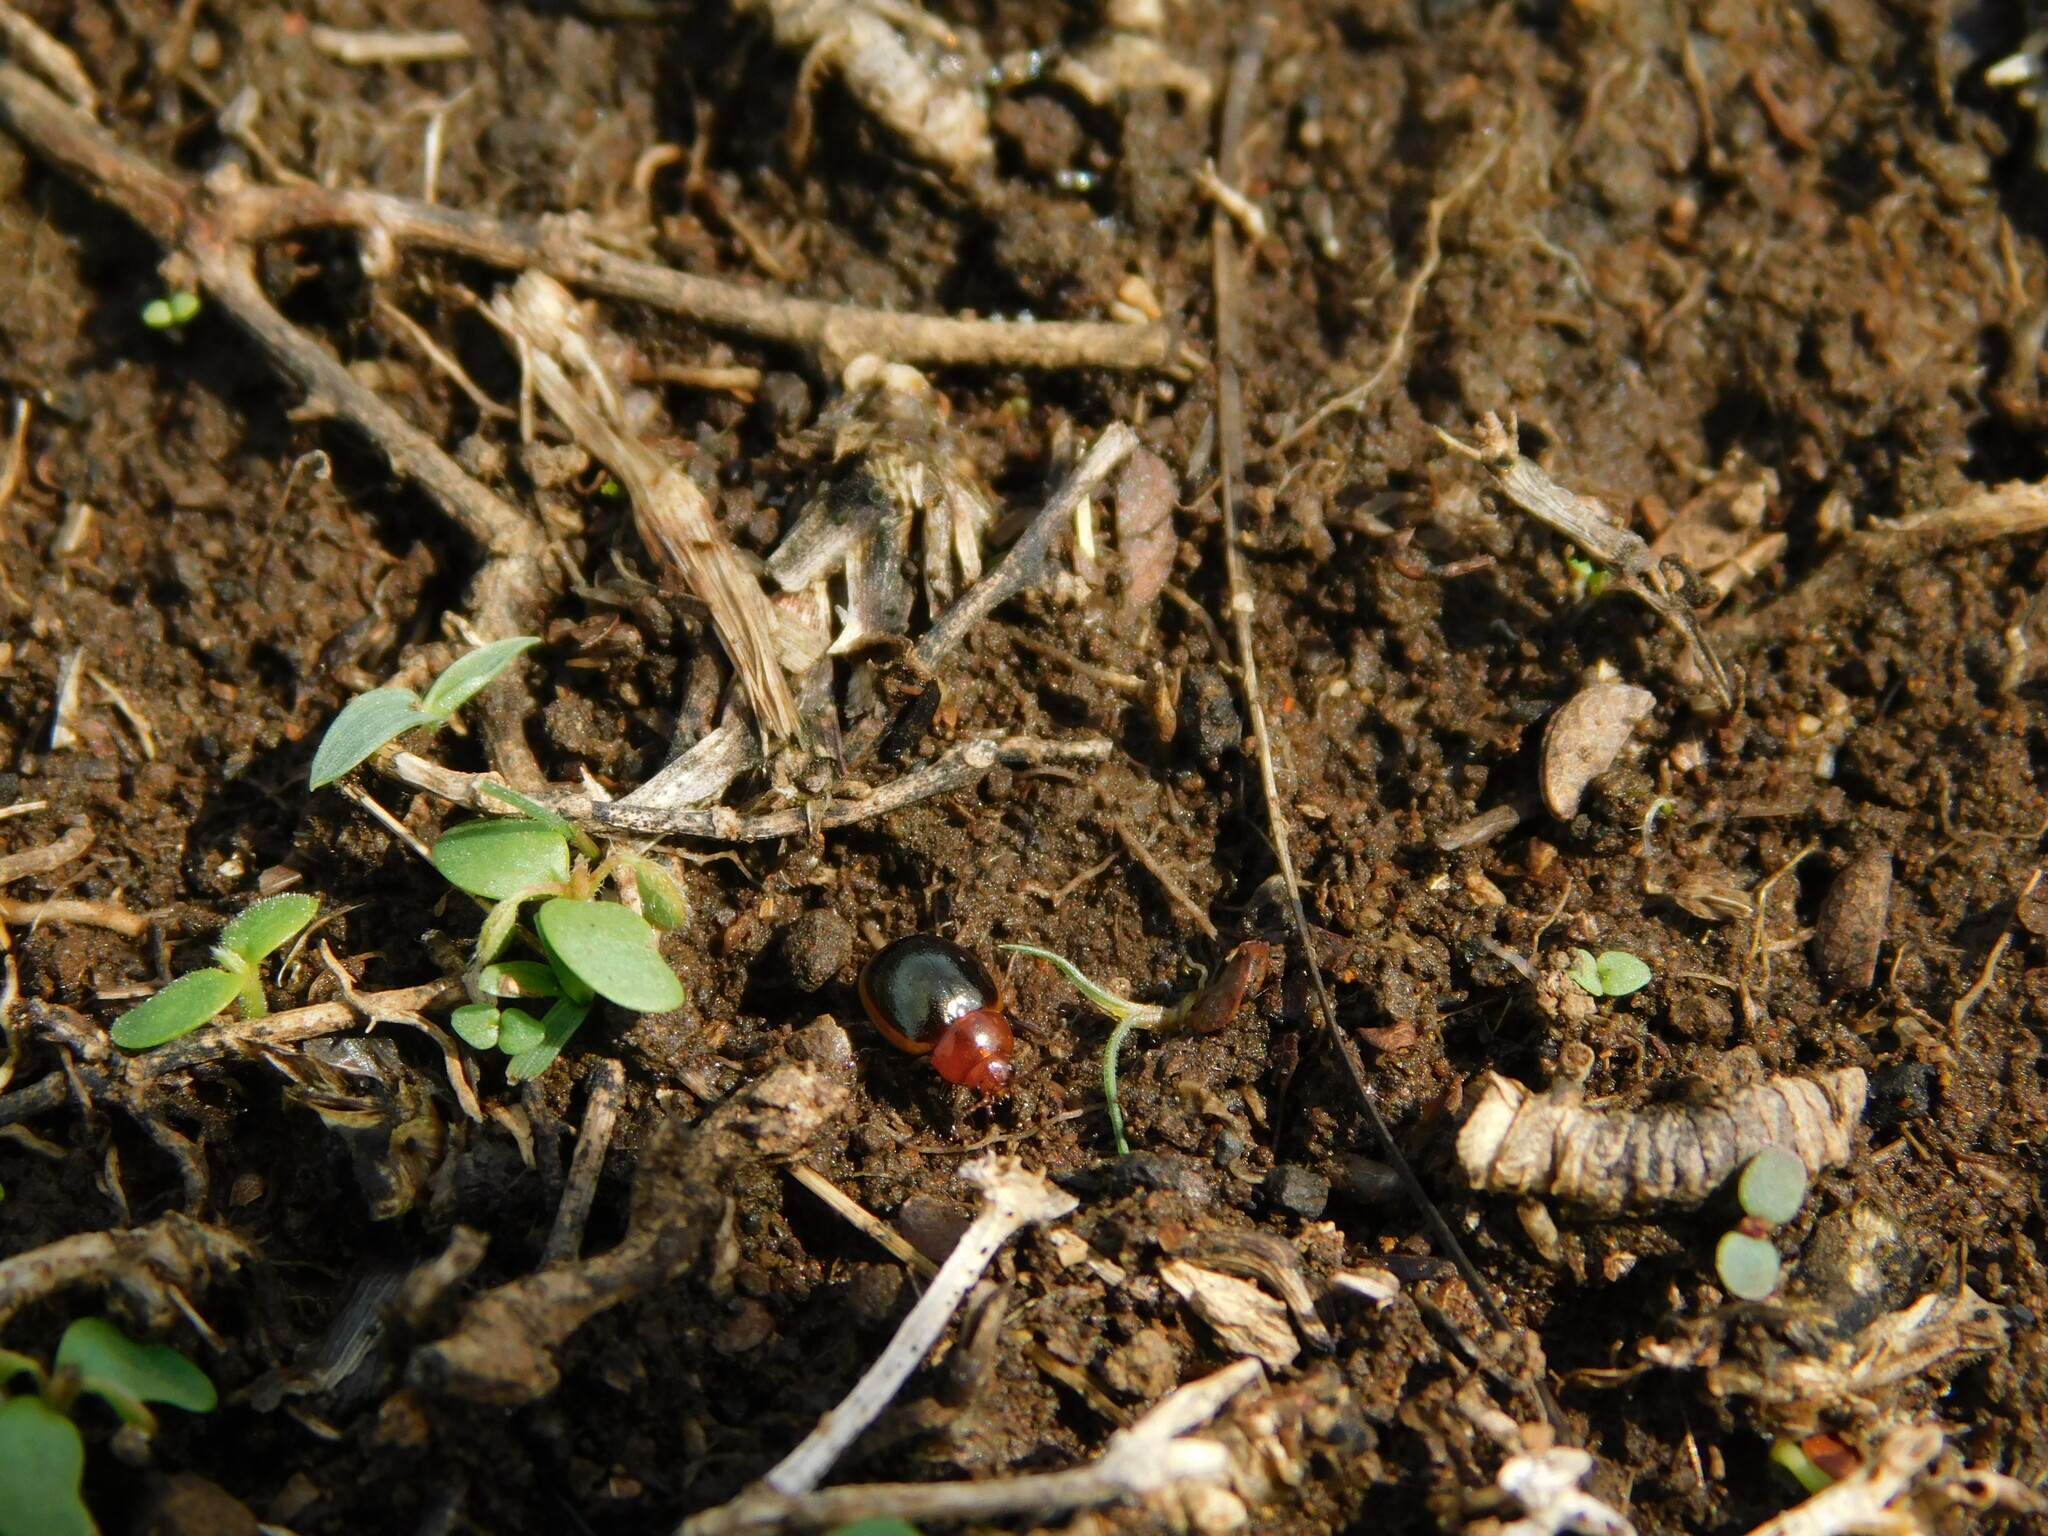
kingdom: Animalia
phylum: Arthropoda
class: Insecta
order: Coleoptera
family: Chrysomelidae
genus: Phaedonia
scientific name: Phaedonia
